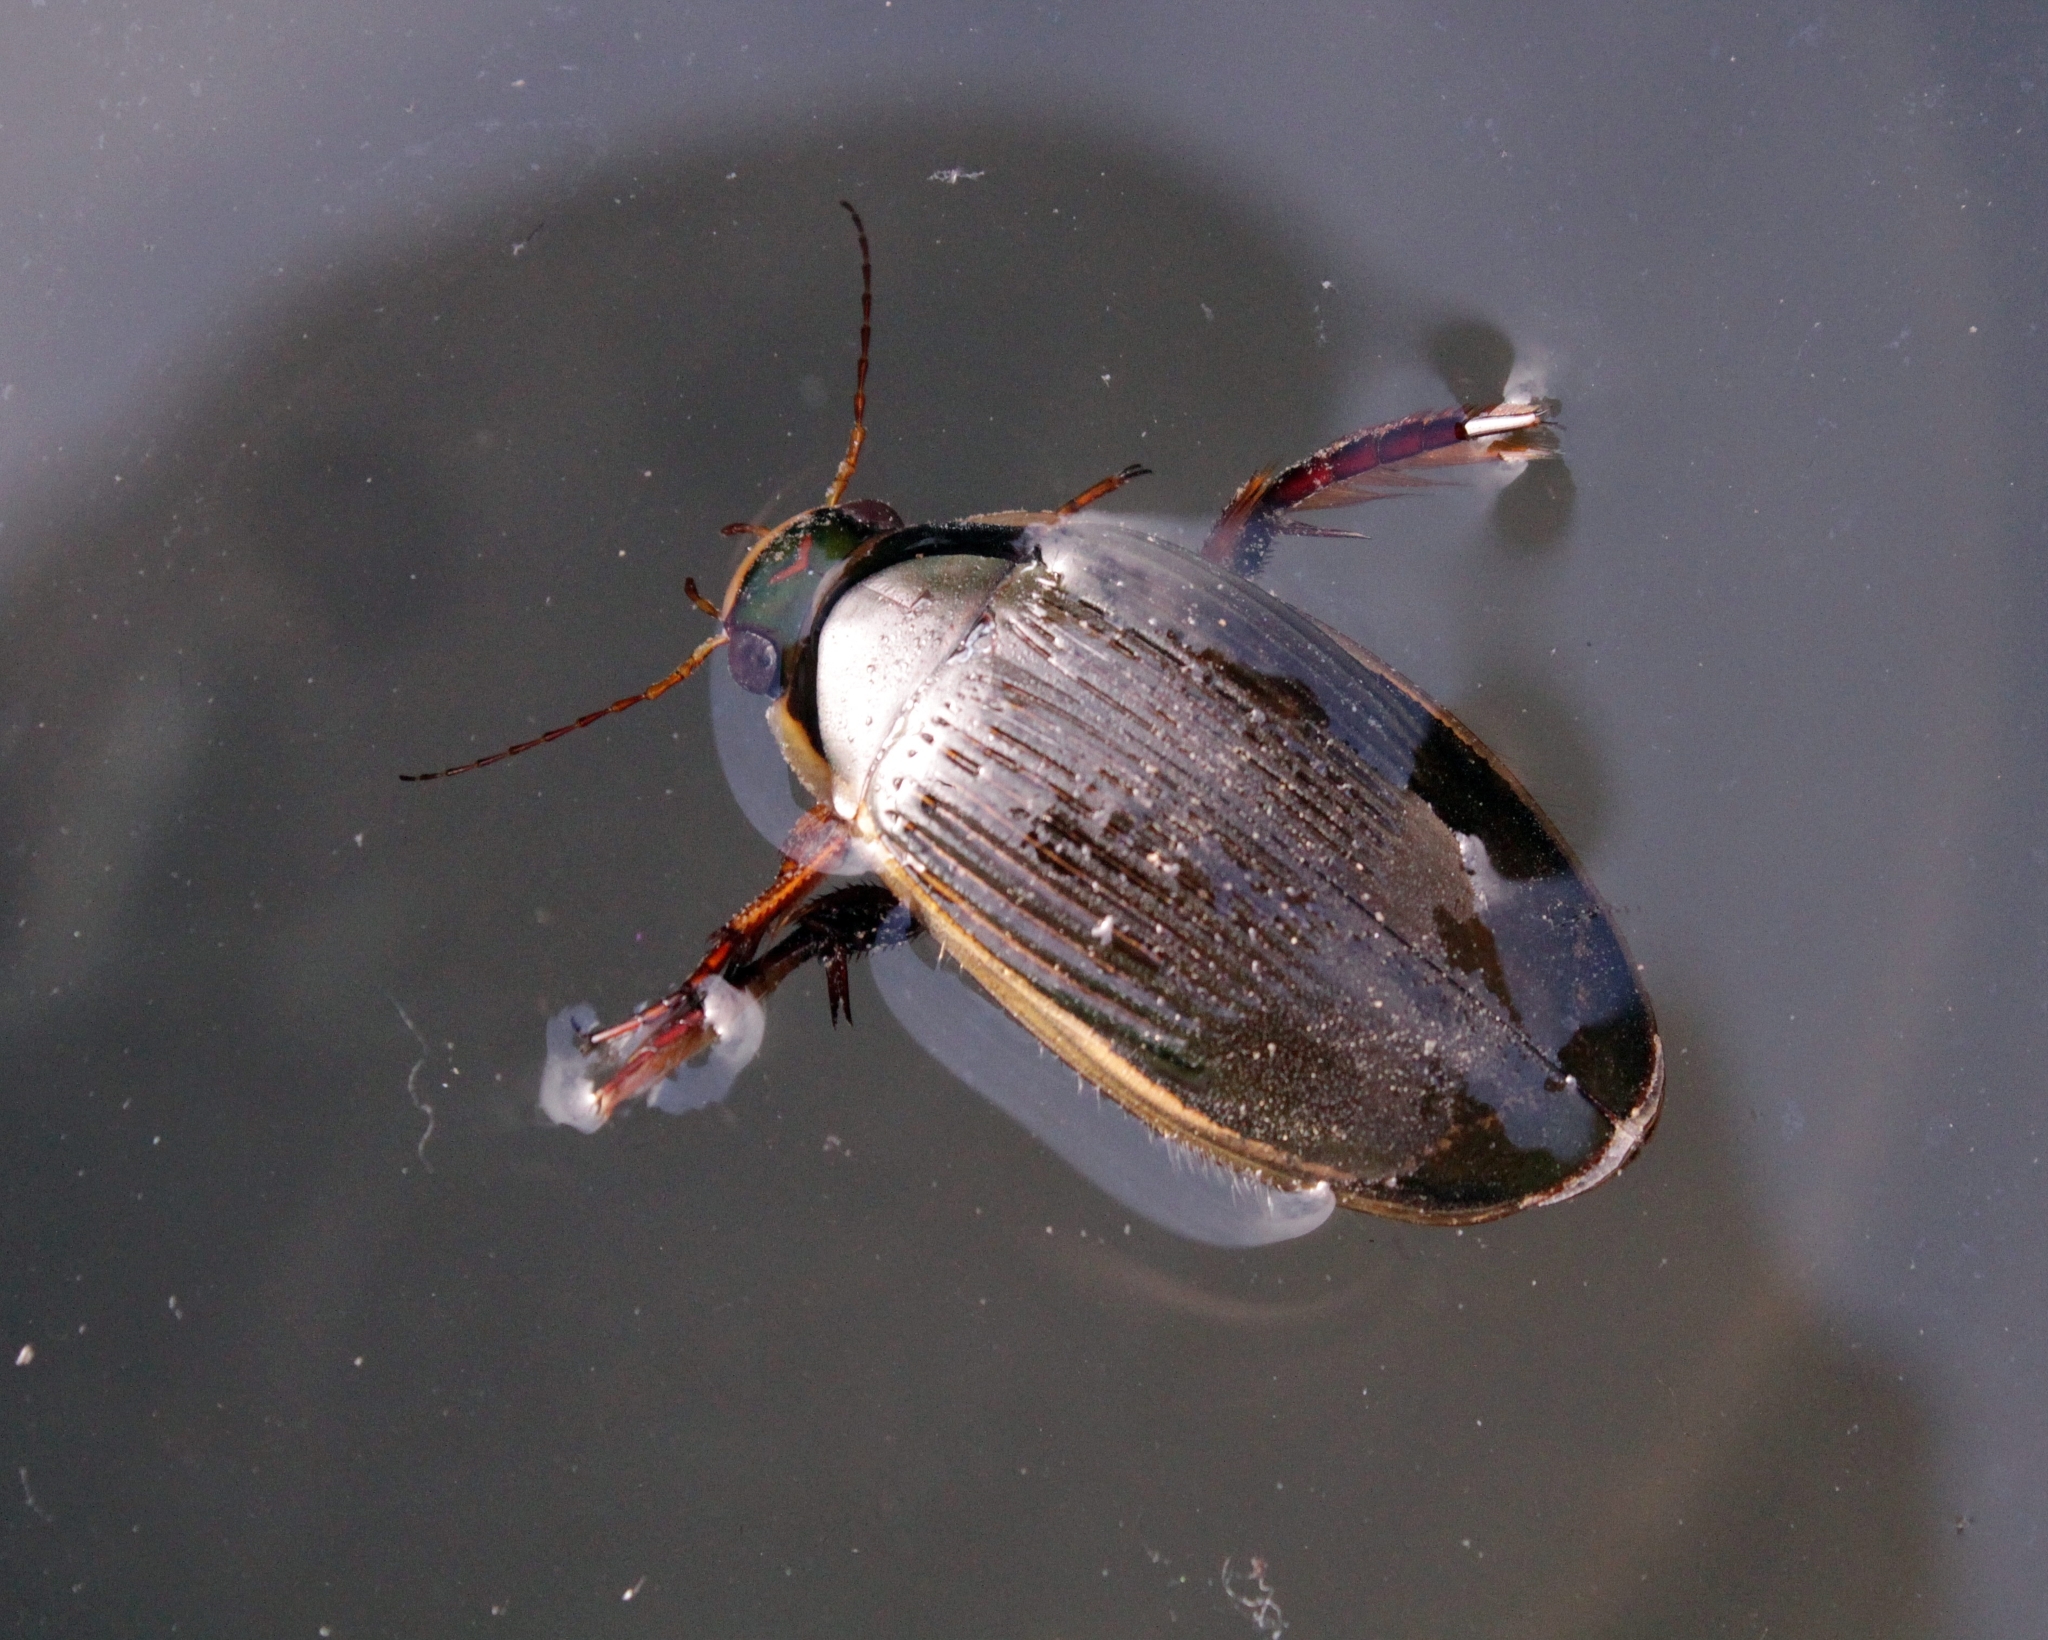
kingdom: Animalia
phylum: Arthropoda
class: Insecta
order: Coleoptera
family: Dytiscidae
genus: Dytiscus
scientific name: Dytiscus dimidiatus
